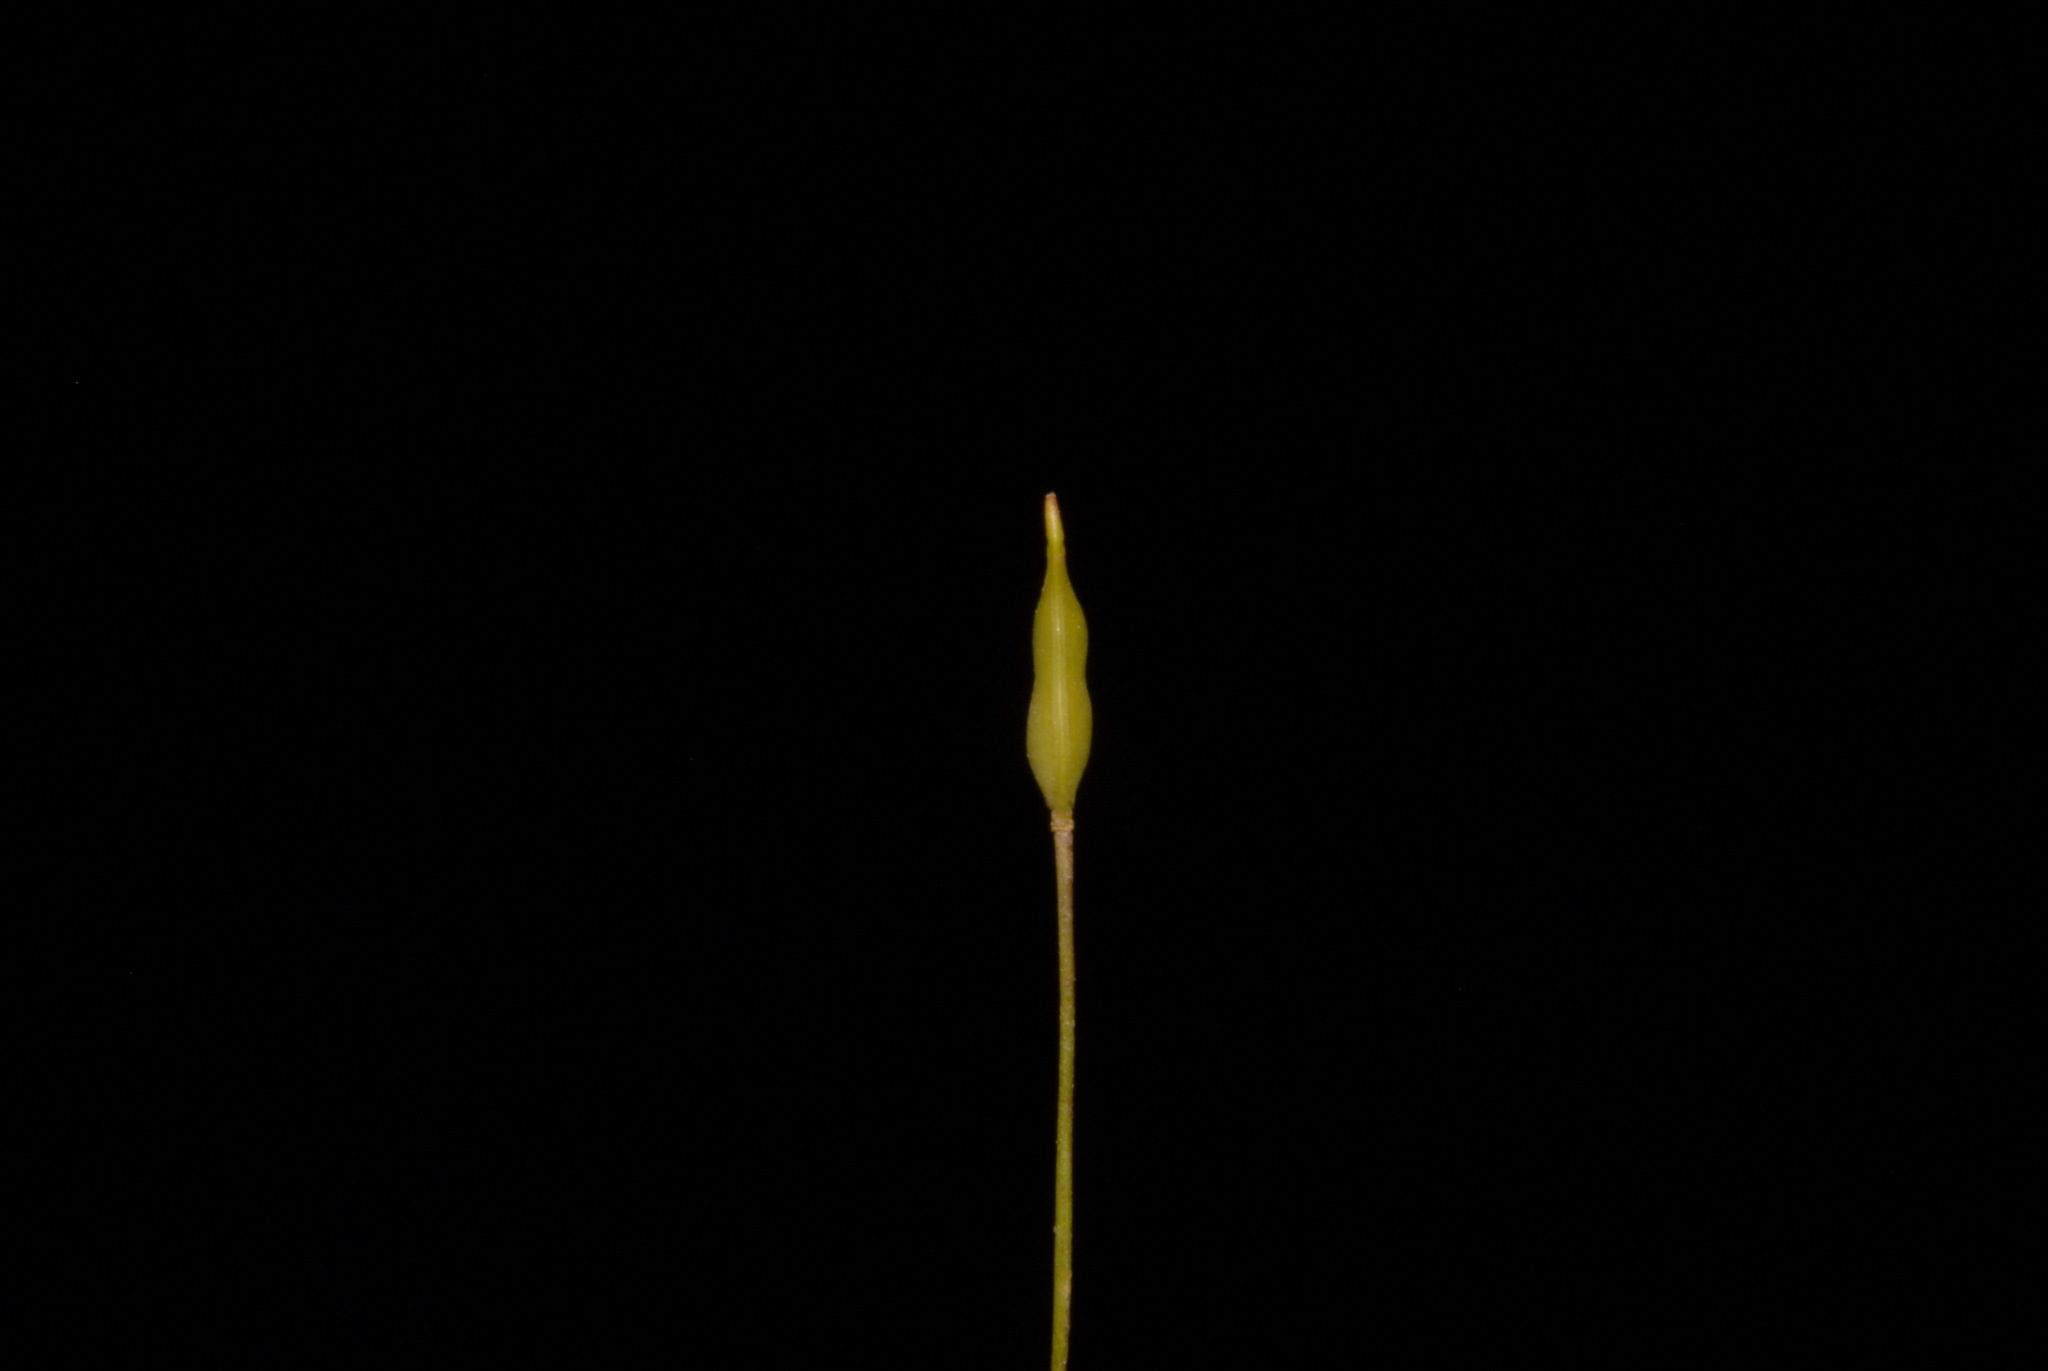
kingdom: Plantae
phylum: Tracheophyta
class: Magnoliopsida
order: Brassicales
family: Brassicaceae
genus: Leavenworthia
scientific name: Leavenworthia exigua
